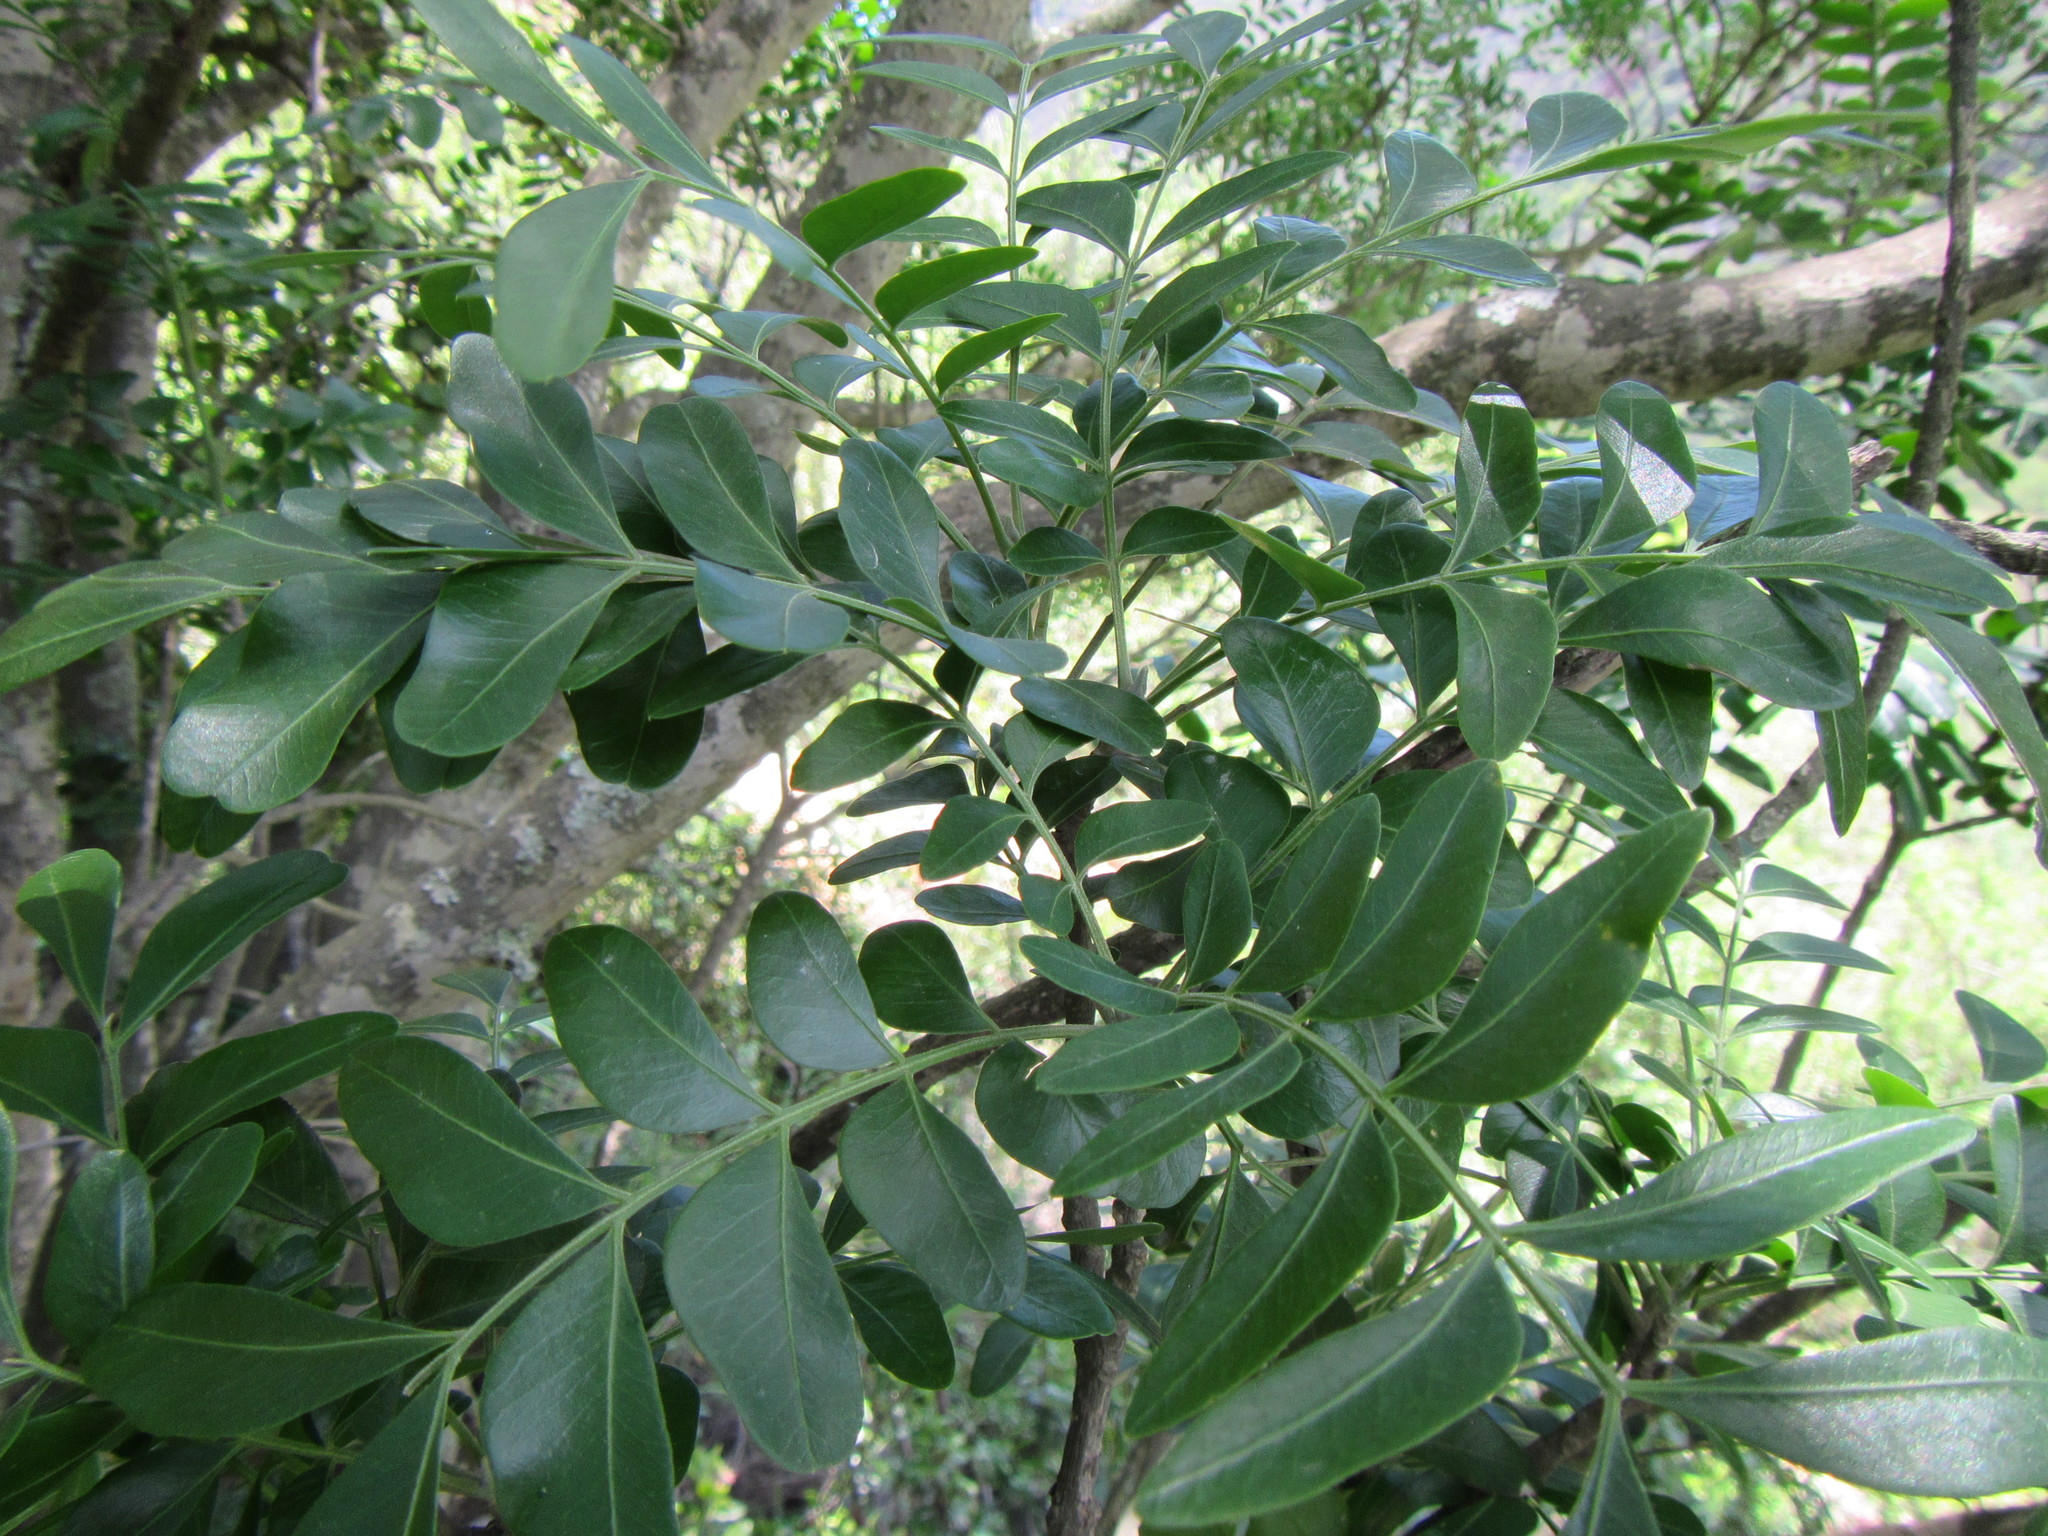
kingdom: Plantae
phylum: Tracheophyta
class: Magnoliopsida
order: Sapindales
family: Rutaceae
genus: Ptaeroxylon
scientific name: Ptaeroxylon obliquum
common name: Sneezewood
